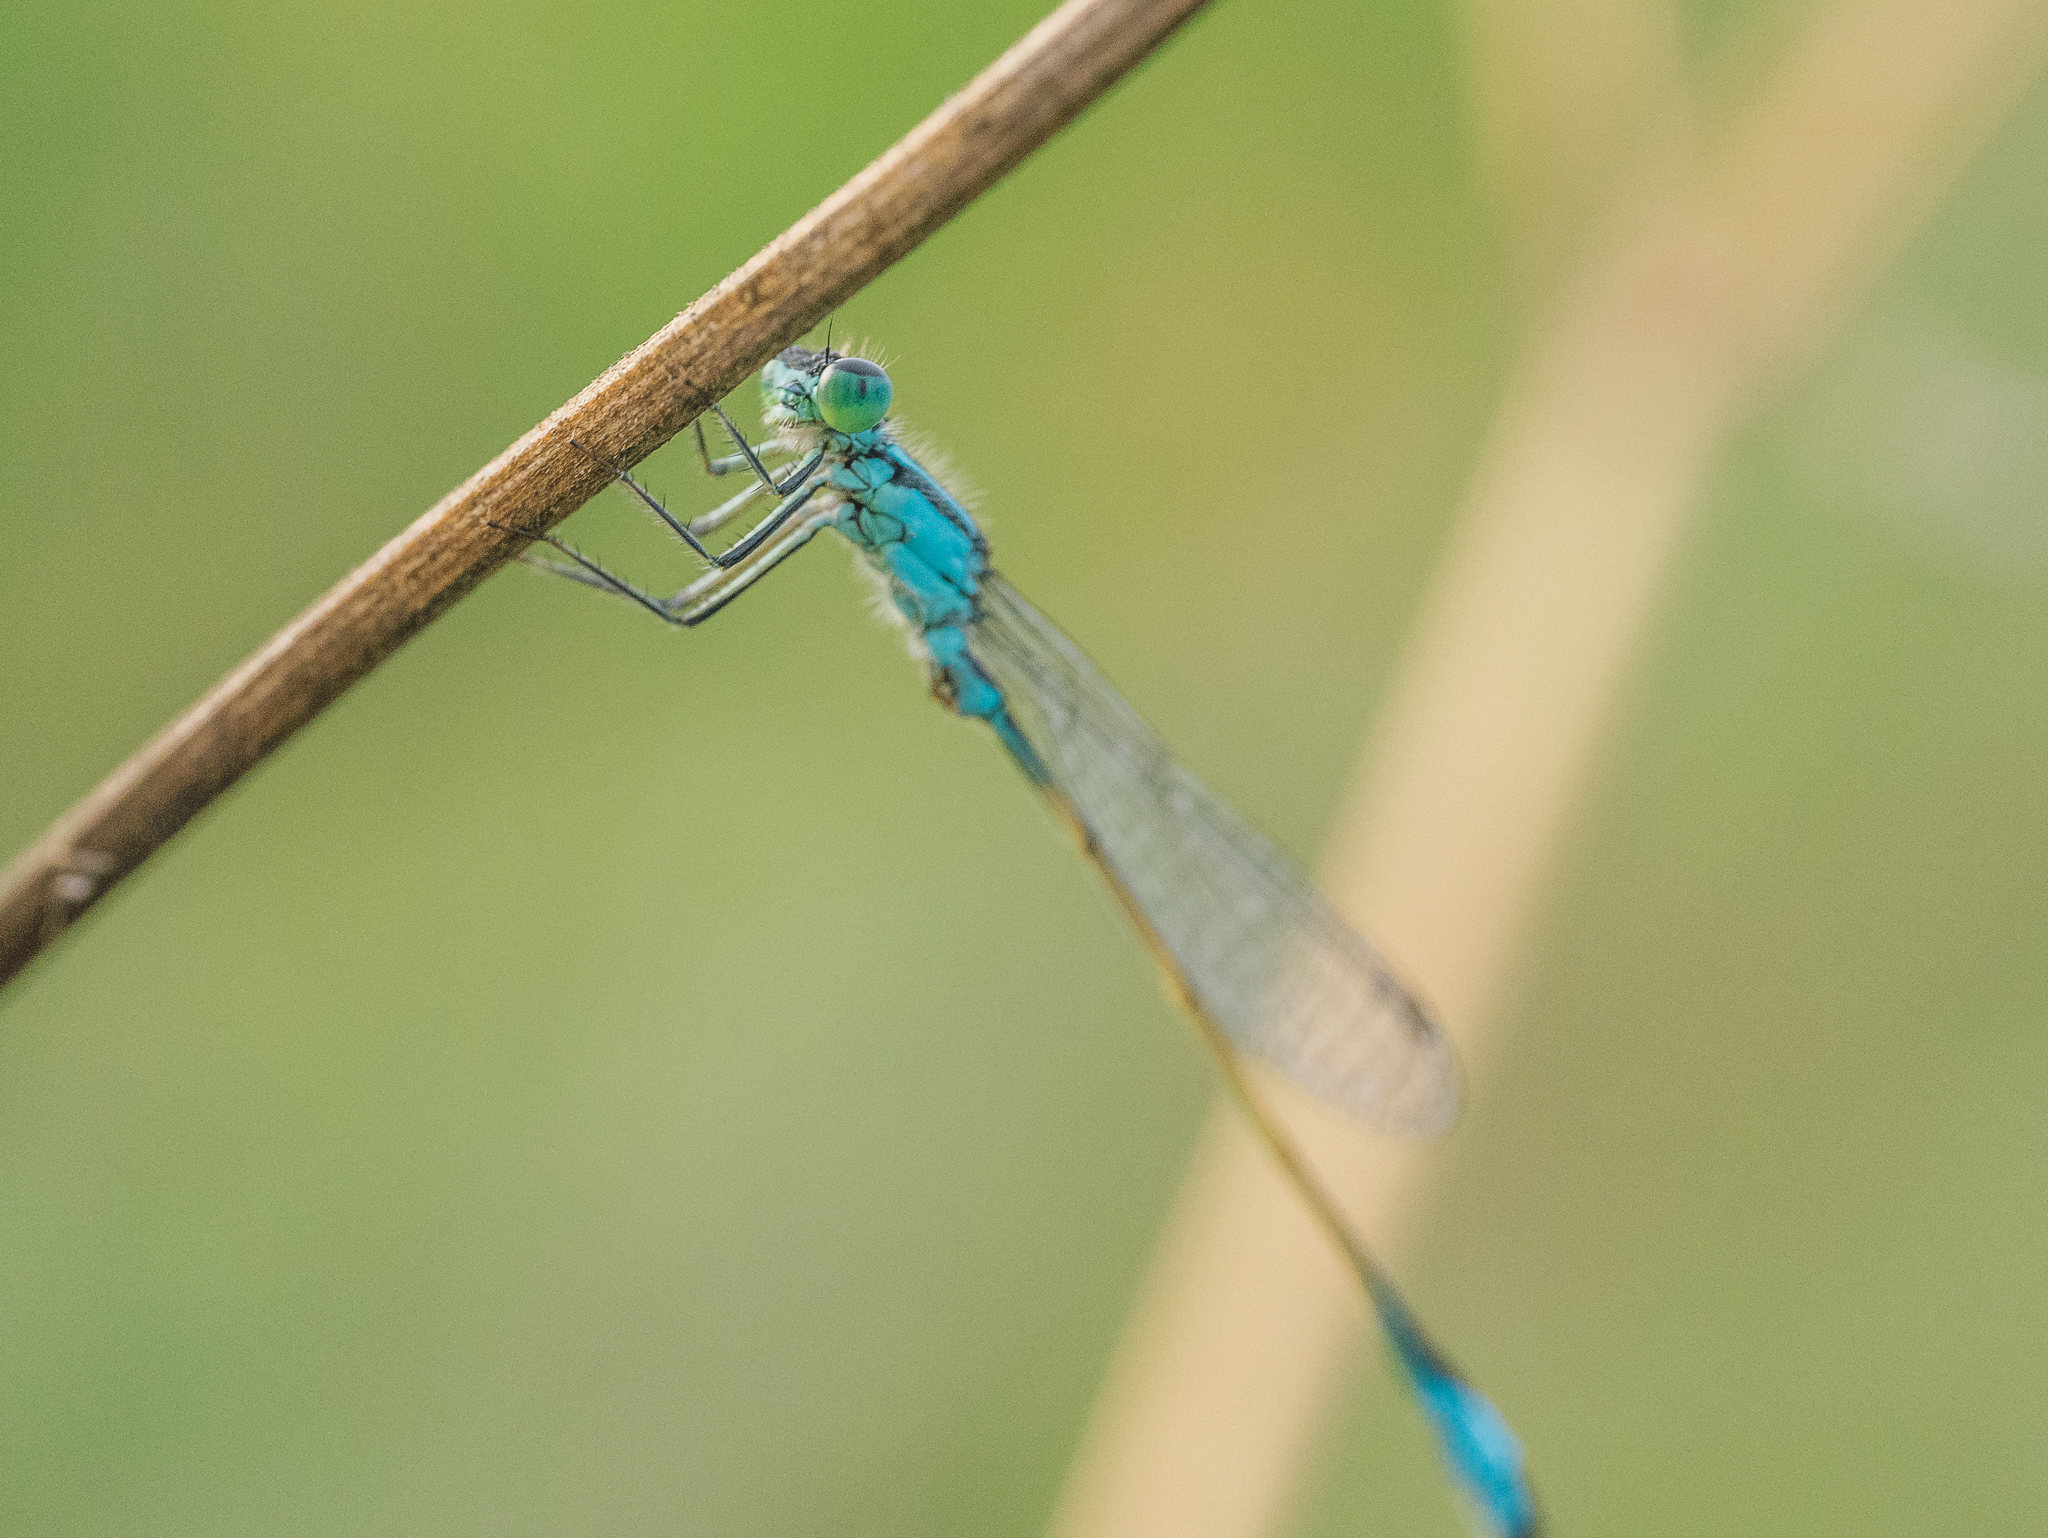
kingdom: Animalia
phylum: Arthropoda
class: Insecta
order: Odonata
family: Coenagrionidae
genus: Ischnura
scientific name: Ischnura elegans
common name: Blue-tailed damselfly
